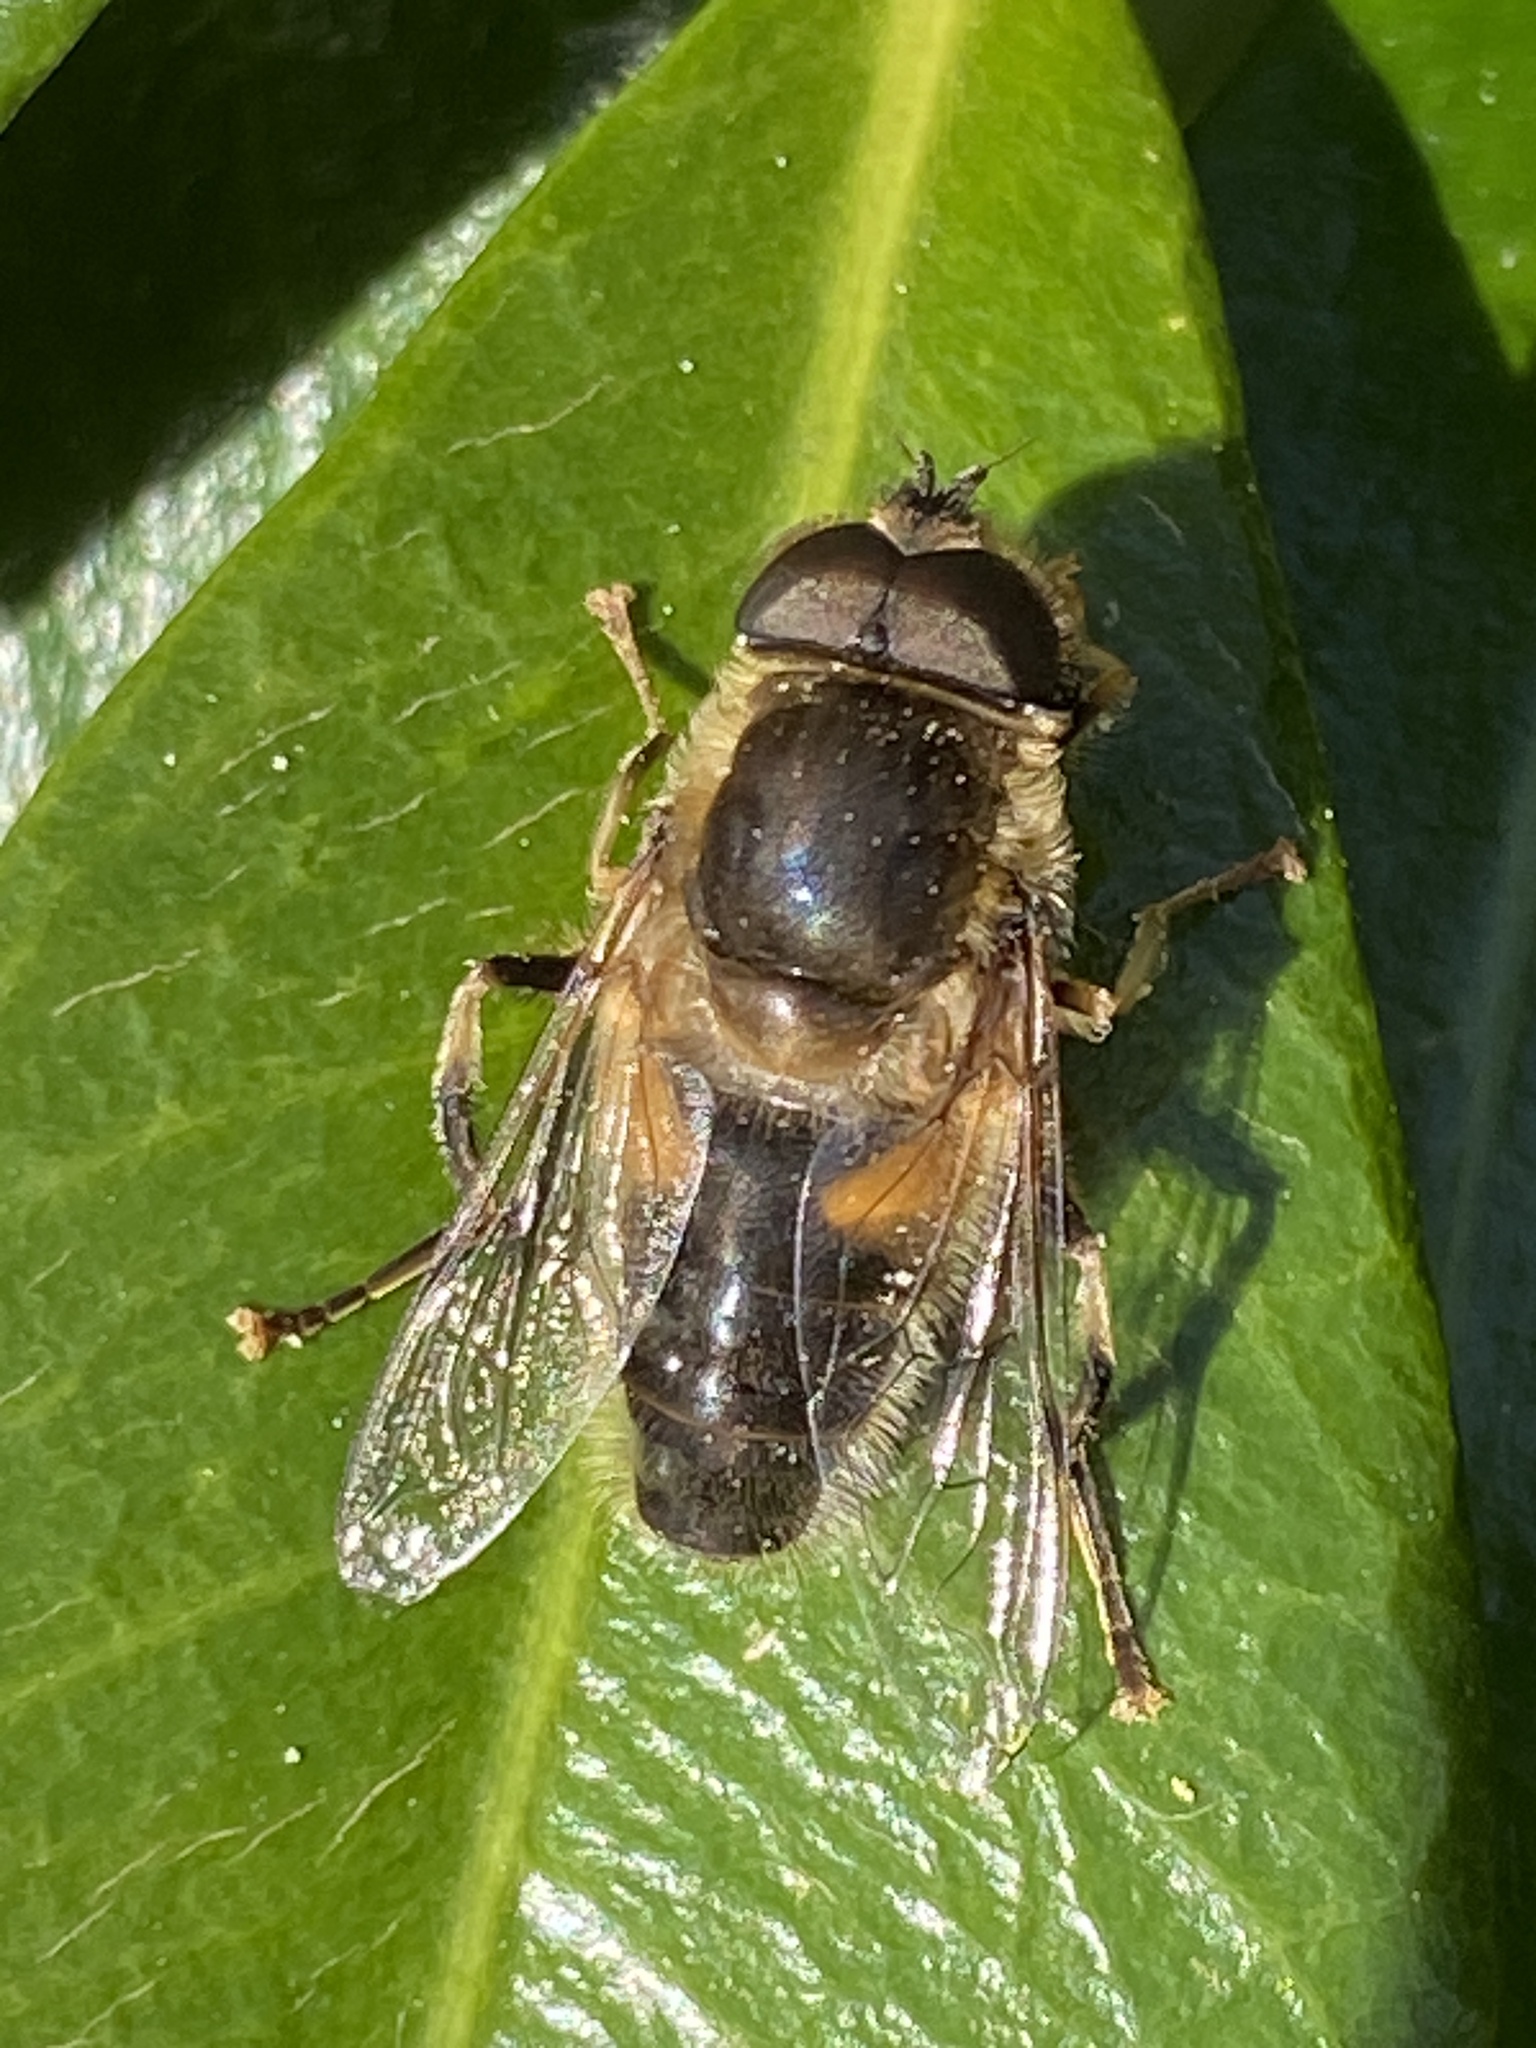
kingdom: Animalia
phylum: Arthropoda
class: Insecta
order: Diptera
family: Syrphidae
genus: Eristalis
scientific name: Eristalis pertinax
